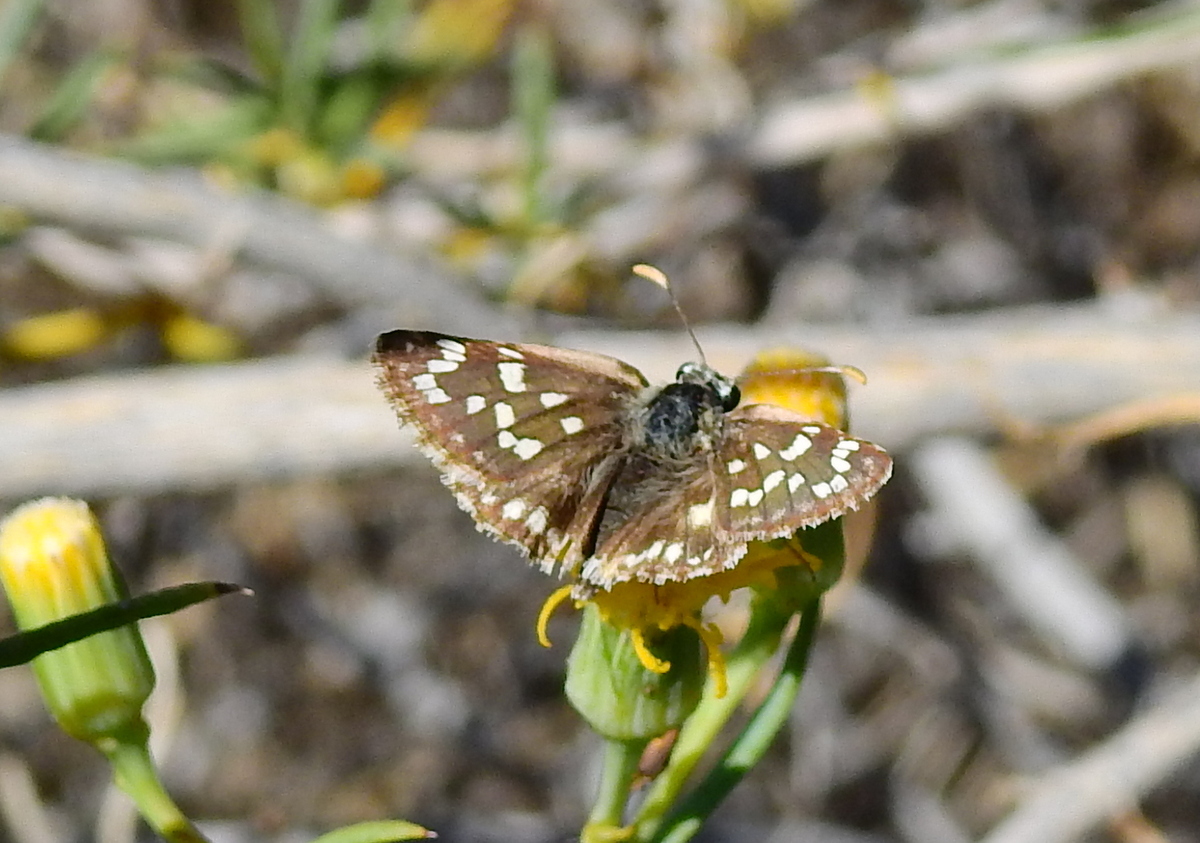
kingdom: Animalia
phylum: Arthropoda
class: Insecta
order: Lepidoptera
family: Hesperiidae
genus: Chirgus
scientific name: Chirgus fides
